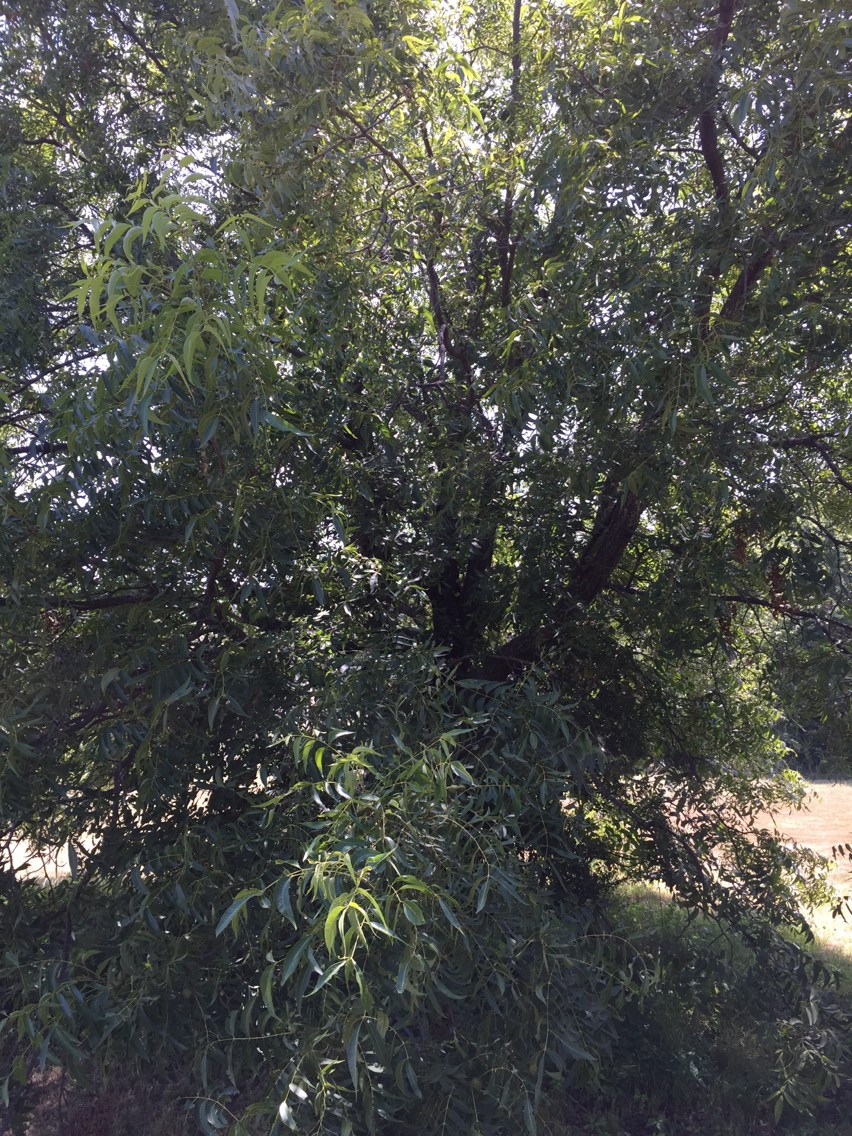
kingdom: Plantae
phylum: Tracheophyta
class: Magnoliopsida
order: Fagales
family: Juglandaceae
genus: Carya
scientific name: Carya illinoinensis
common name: Pecan
